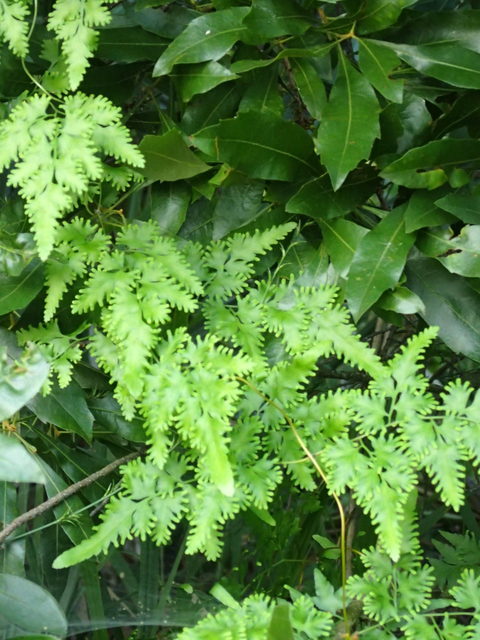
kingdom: Plantae
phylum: Tracheophyta
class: Polypodiopsida
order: Schizaeales
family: Lygodiaceae
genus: Lygodium
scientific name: Lygodium japonicum
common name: Japanese climbing fern
